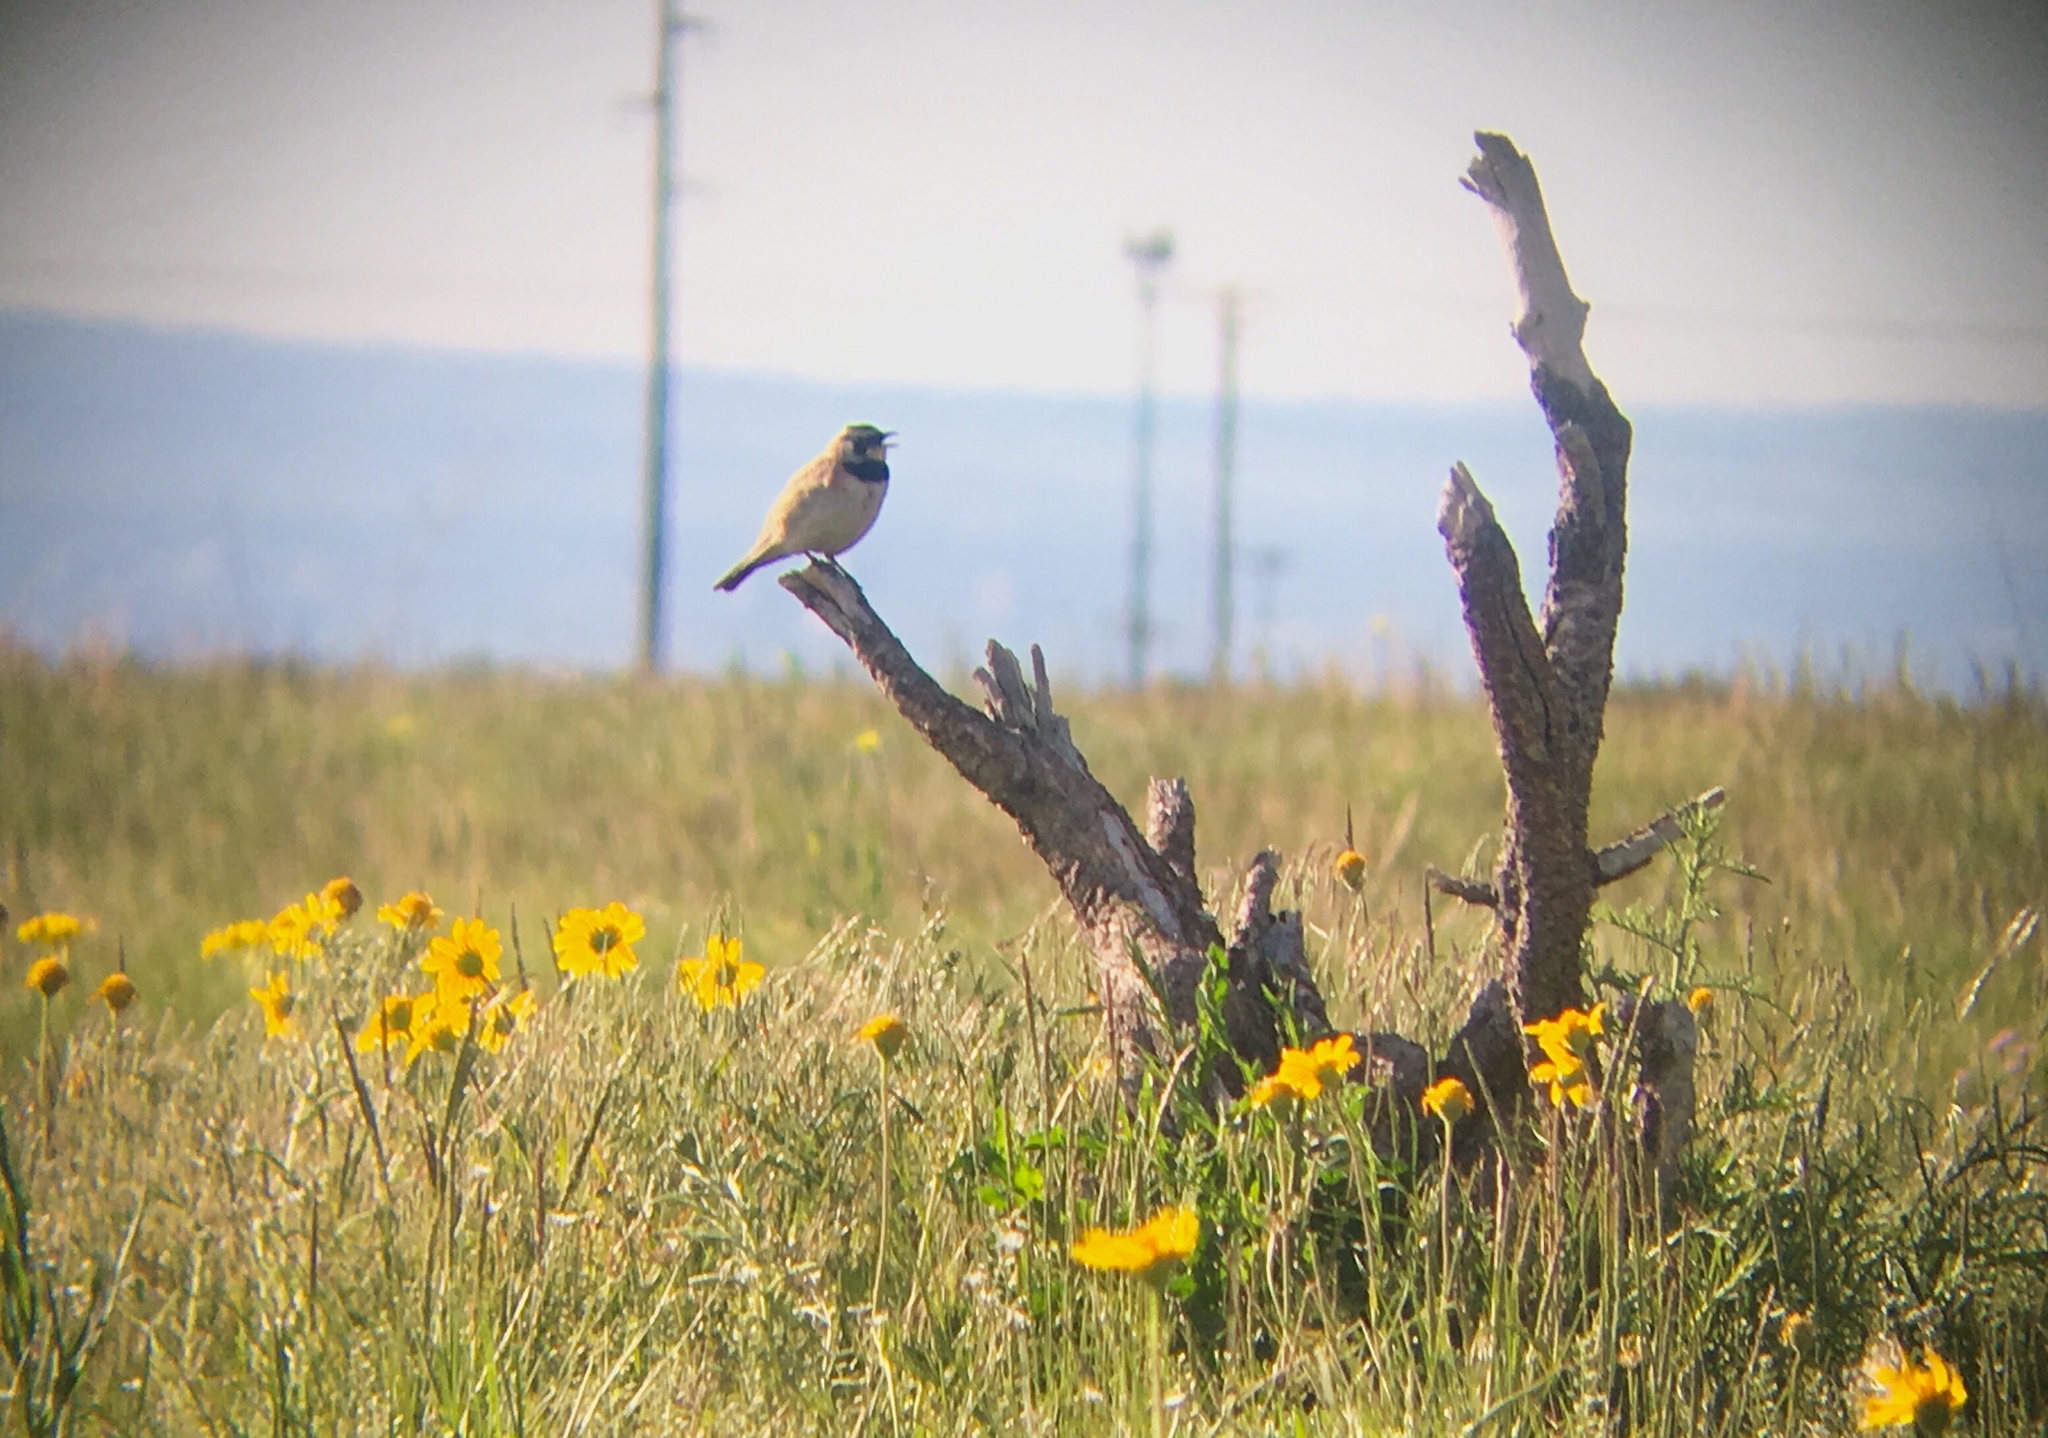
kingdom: Animalia
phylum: Chordata
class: Aves
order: Passeriformes
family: Alaudidae
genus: Eremophila
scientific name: Eremophila alpestris
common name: Horned lark
